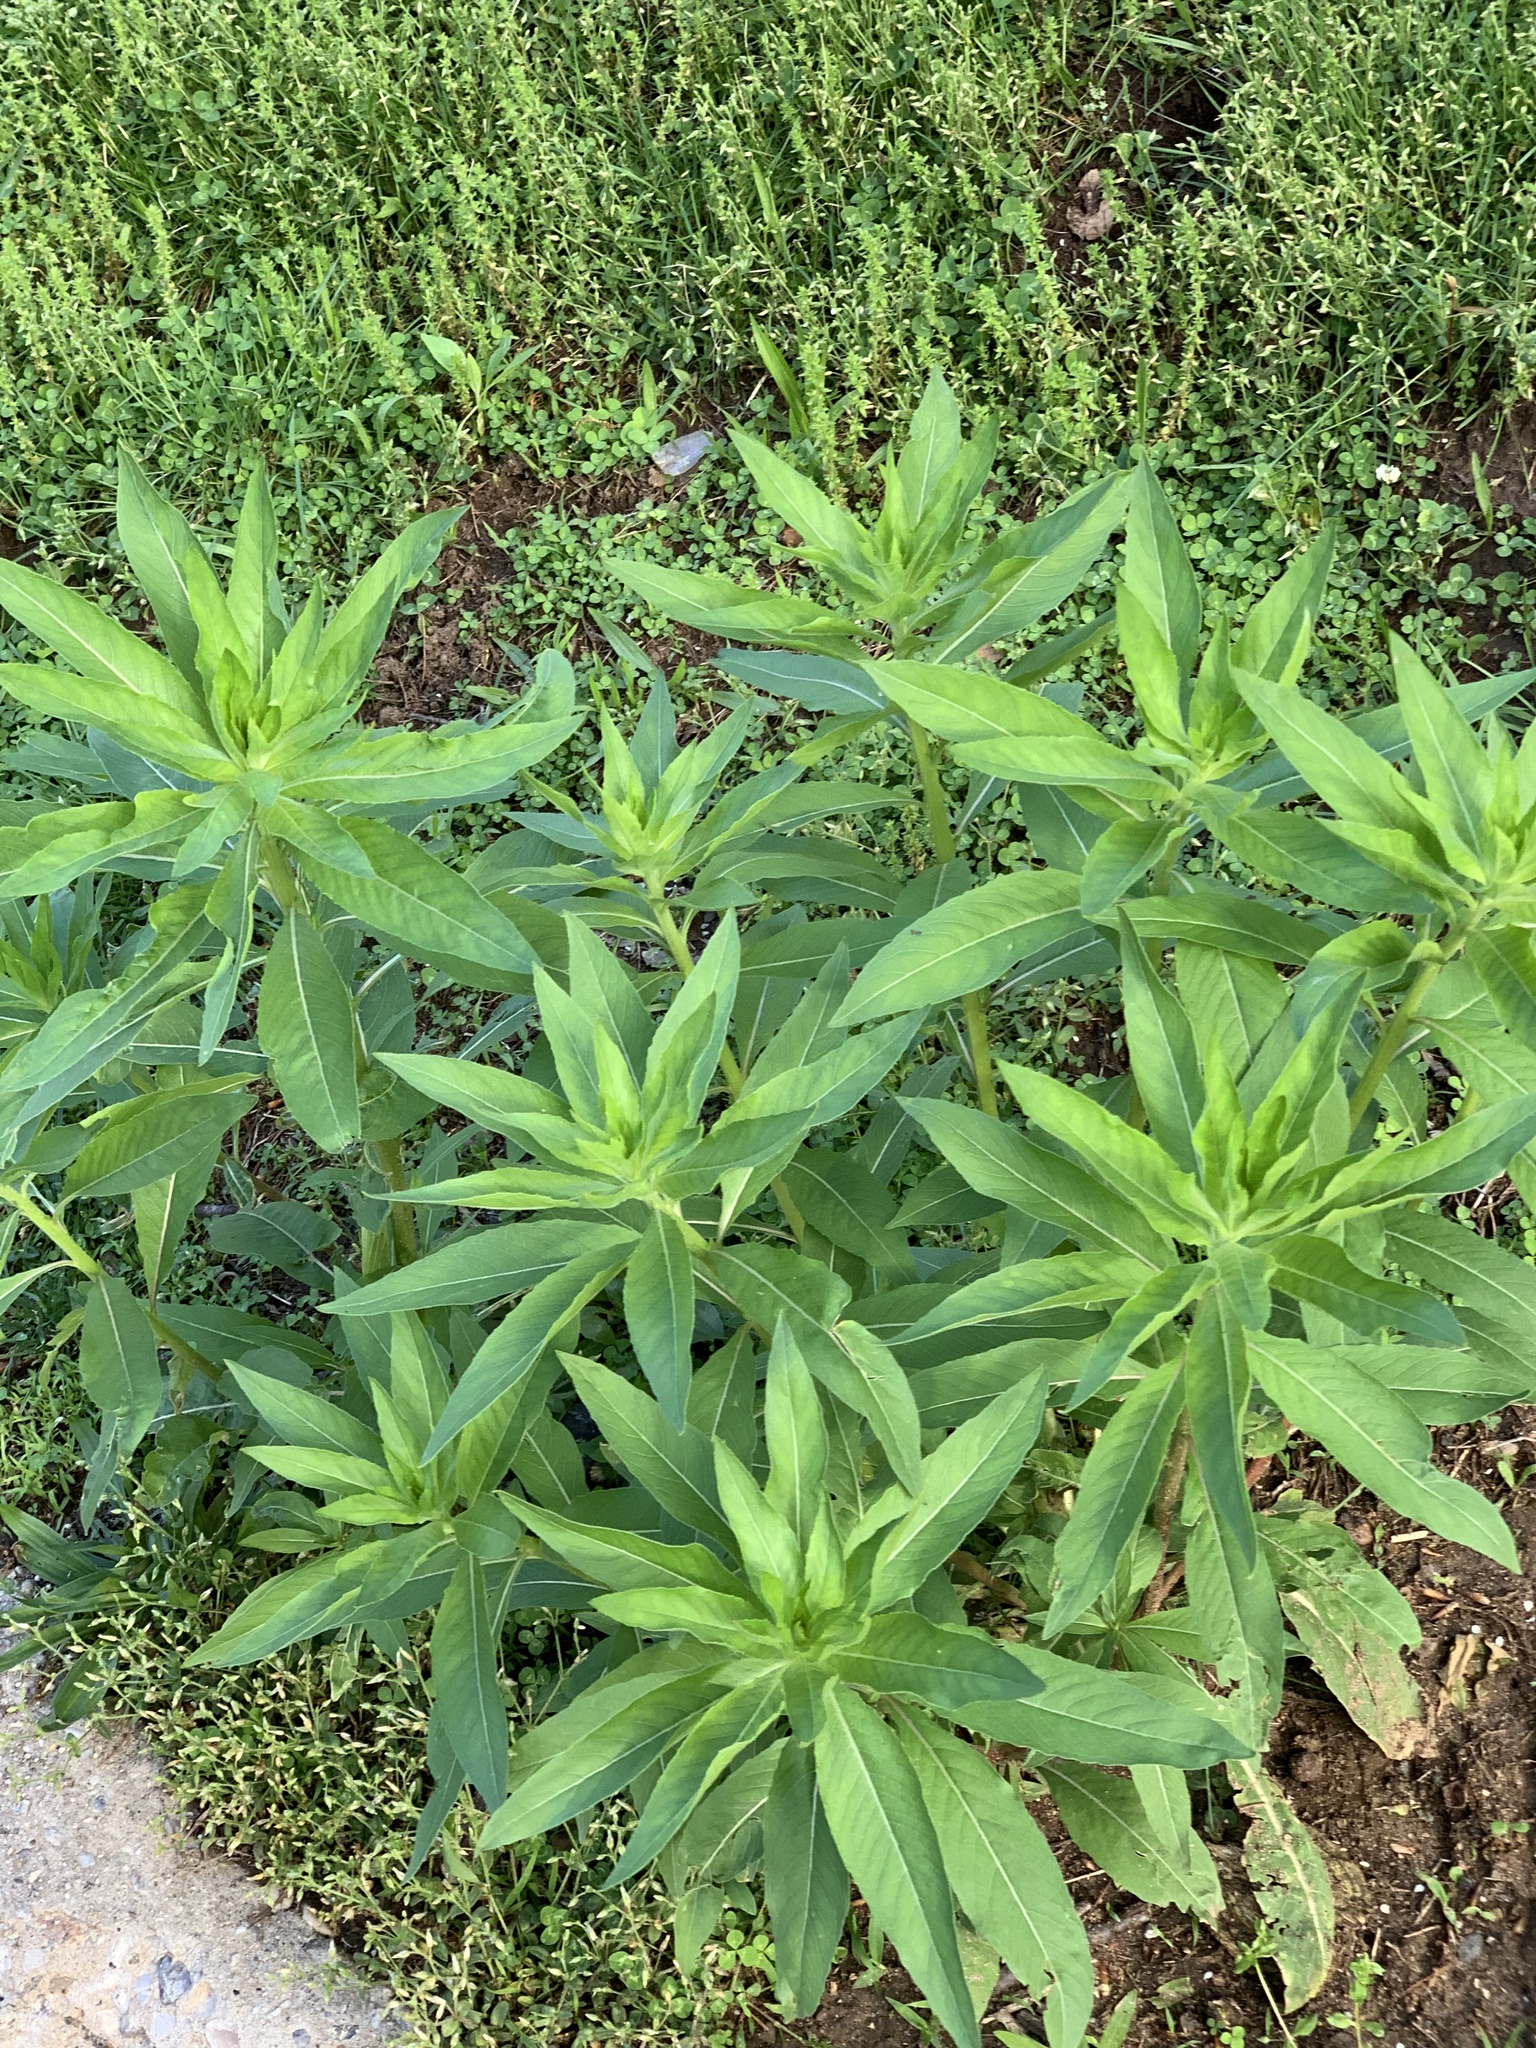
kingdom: Plantae
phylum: Tracheophyta
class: Magnoliopsida
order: Myrtales
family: Onagraceae
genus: Oenothera
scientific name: Oenothera biennis
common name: Common evening-primrose
